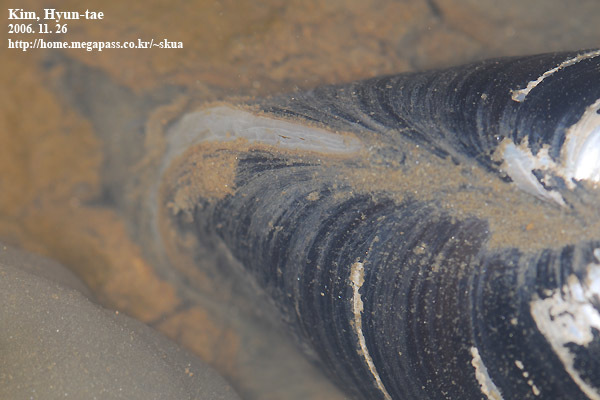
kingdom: Animalia
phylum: Mollusca
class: Bivalvia
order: Unionida
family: Unionidae
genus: Buldowskia
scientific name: Buldowskia shadini
